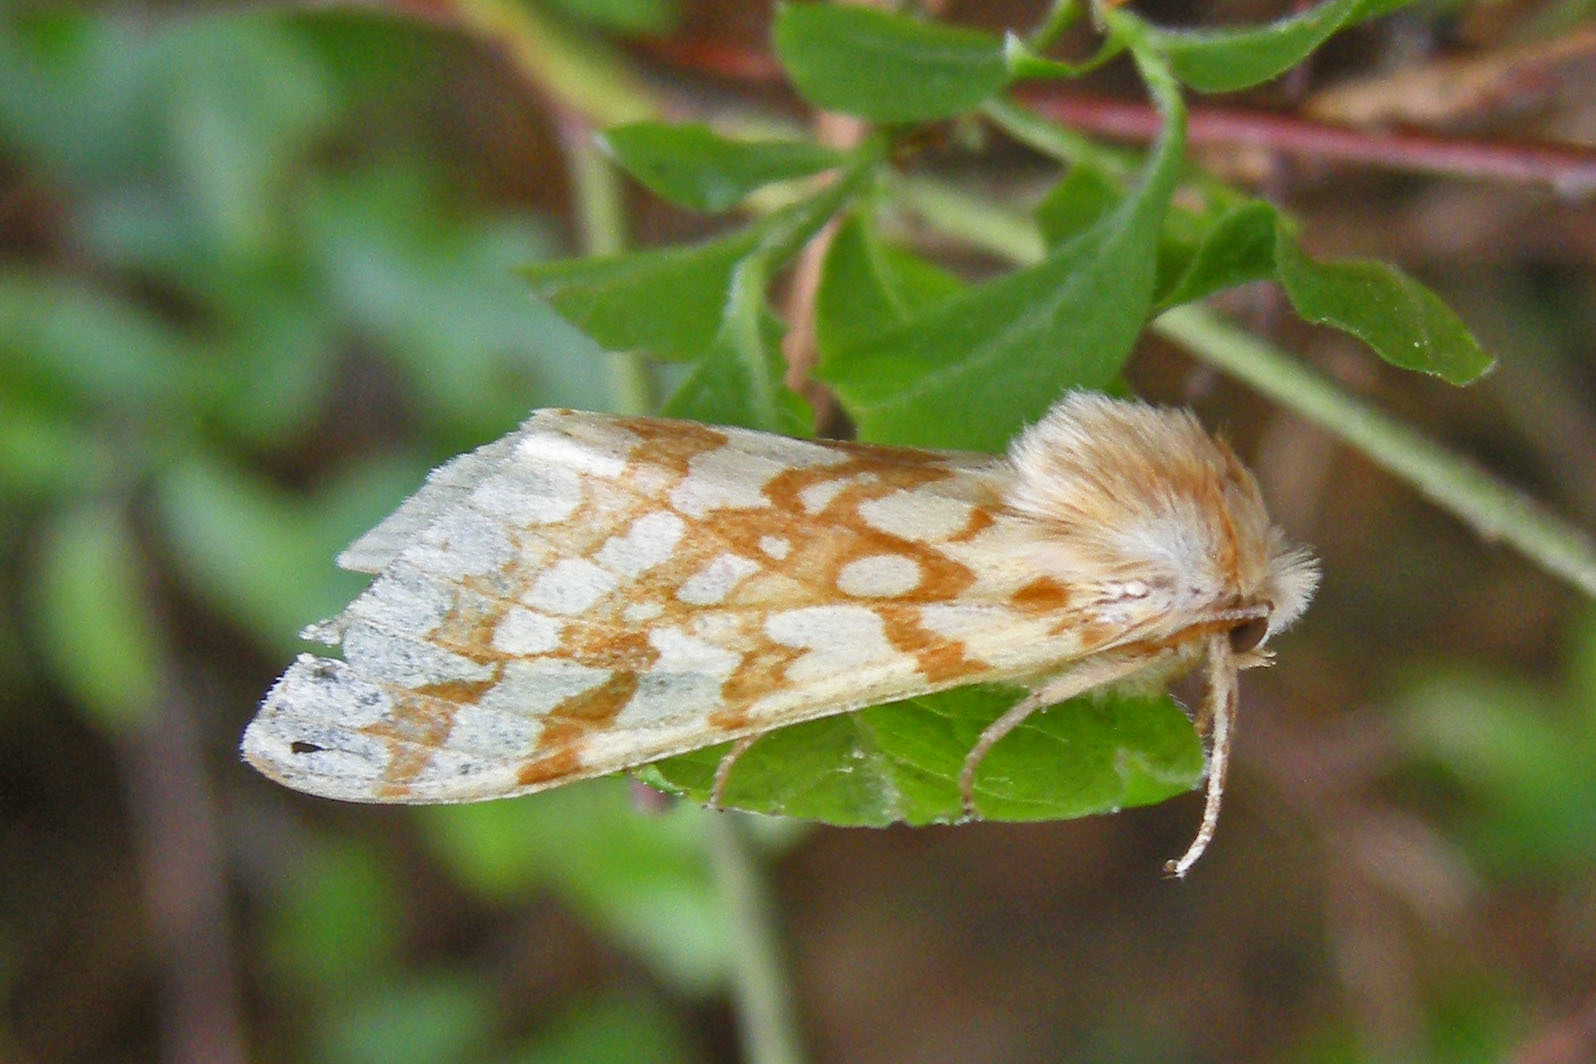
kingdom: Animalia
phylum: Arthropoda
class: Insecta
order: Lepidoptera
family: Erebidae
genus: Lophocampa
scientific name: Lophocampa maculata
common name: Spotted tussock moth
